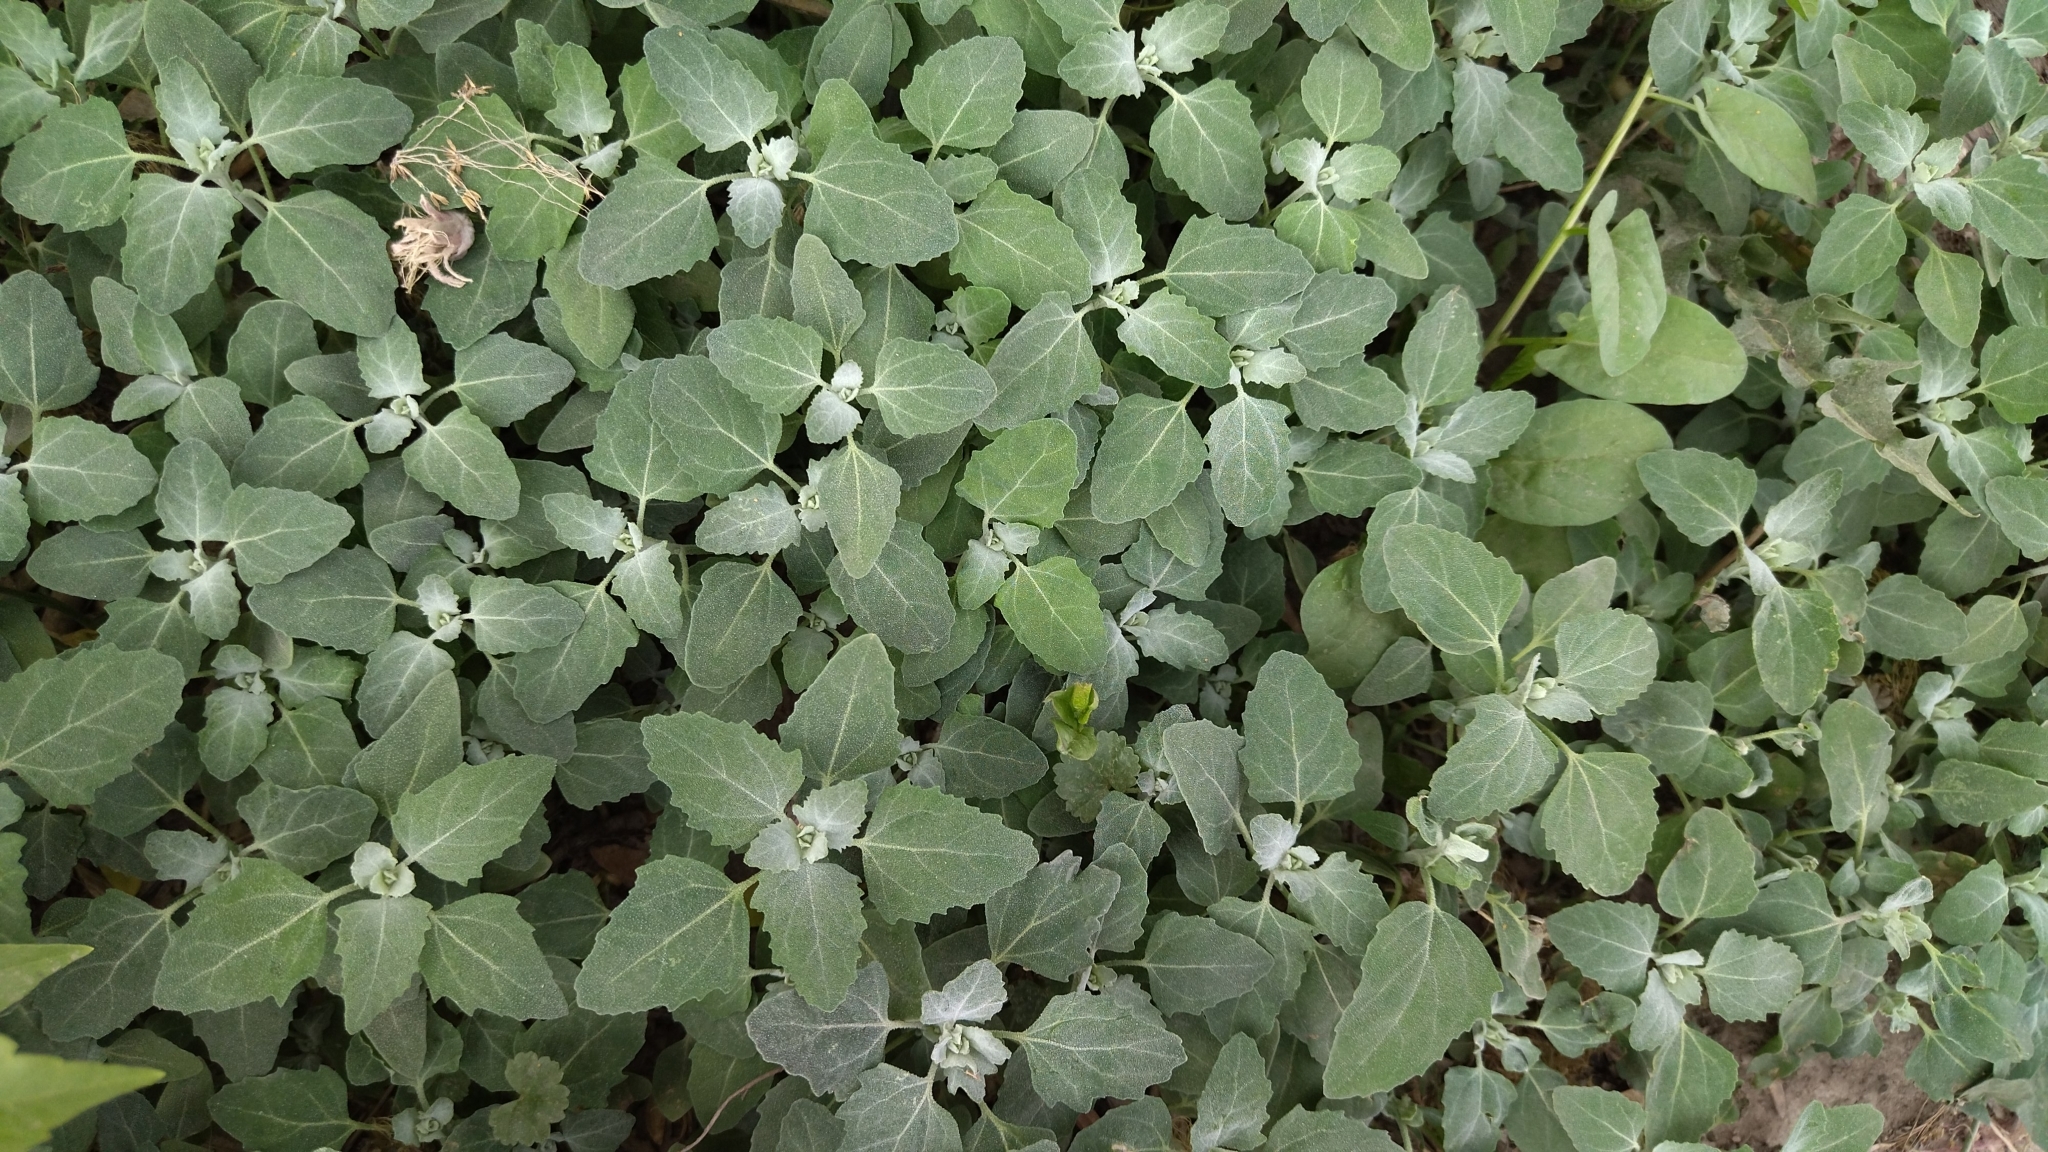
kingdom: Plantae
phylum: Tracheophyta
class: Magnoliopsida
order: Caryophyllales
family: Amaranthaceae
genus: Chenopodium
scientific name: Chenopodium album
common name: Fat-hen
